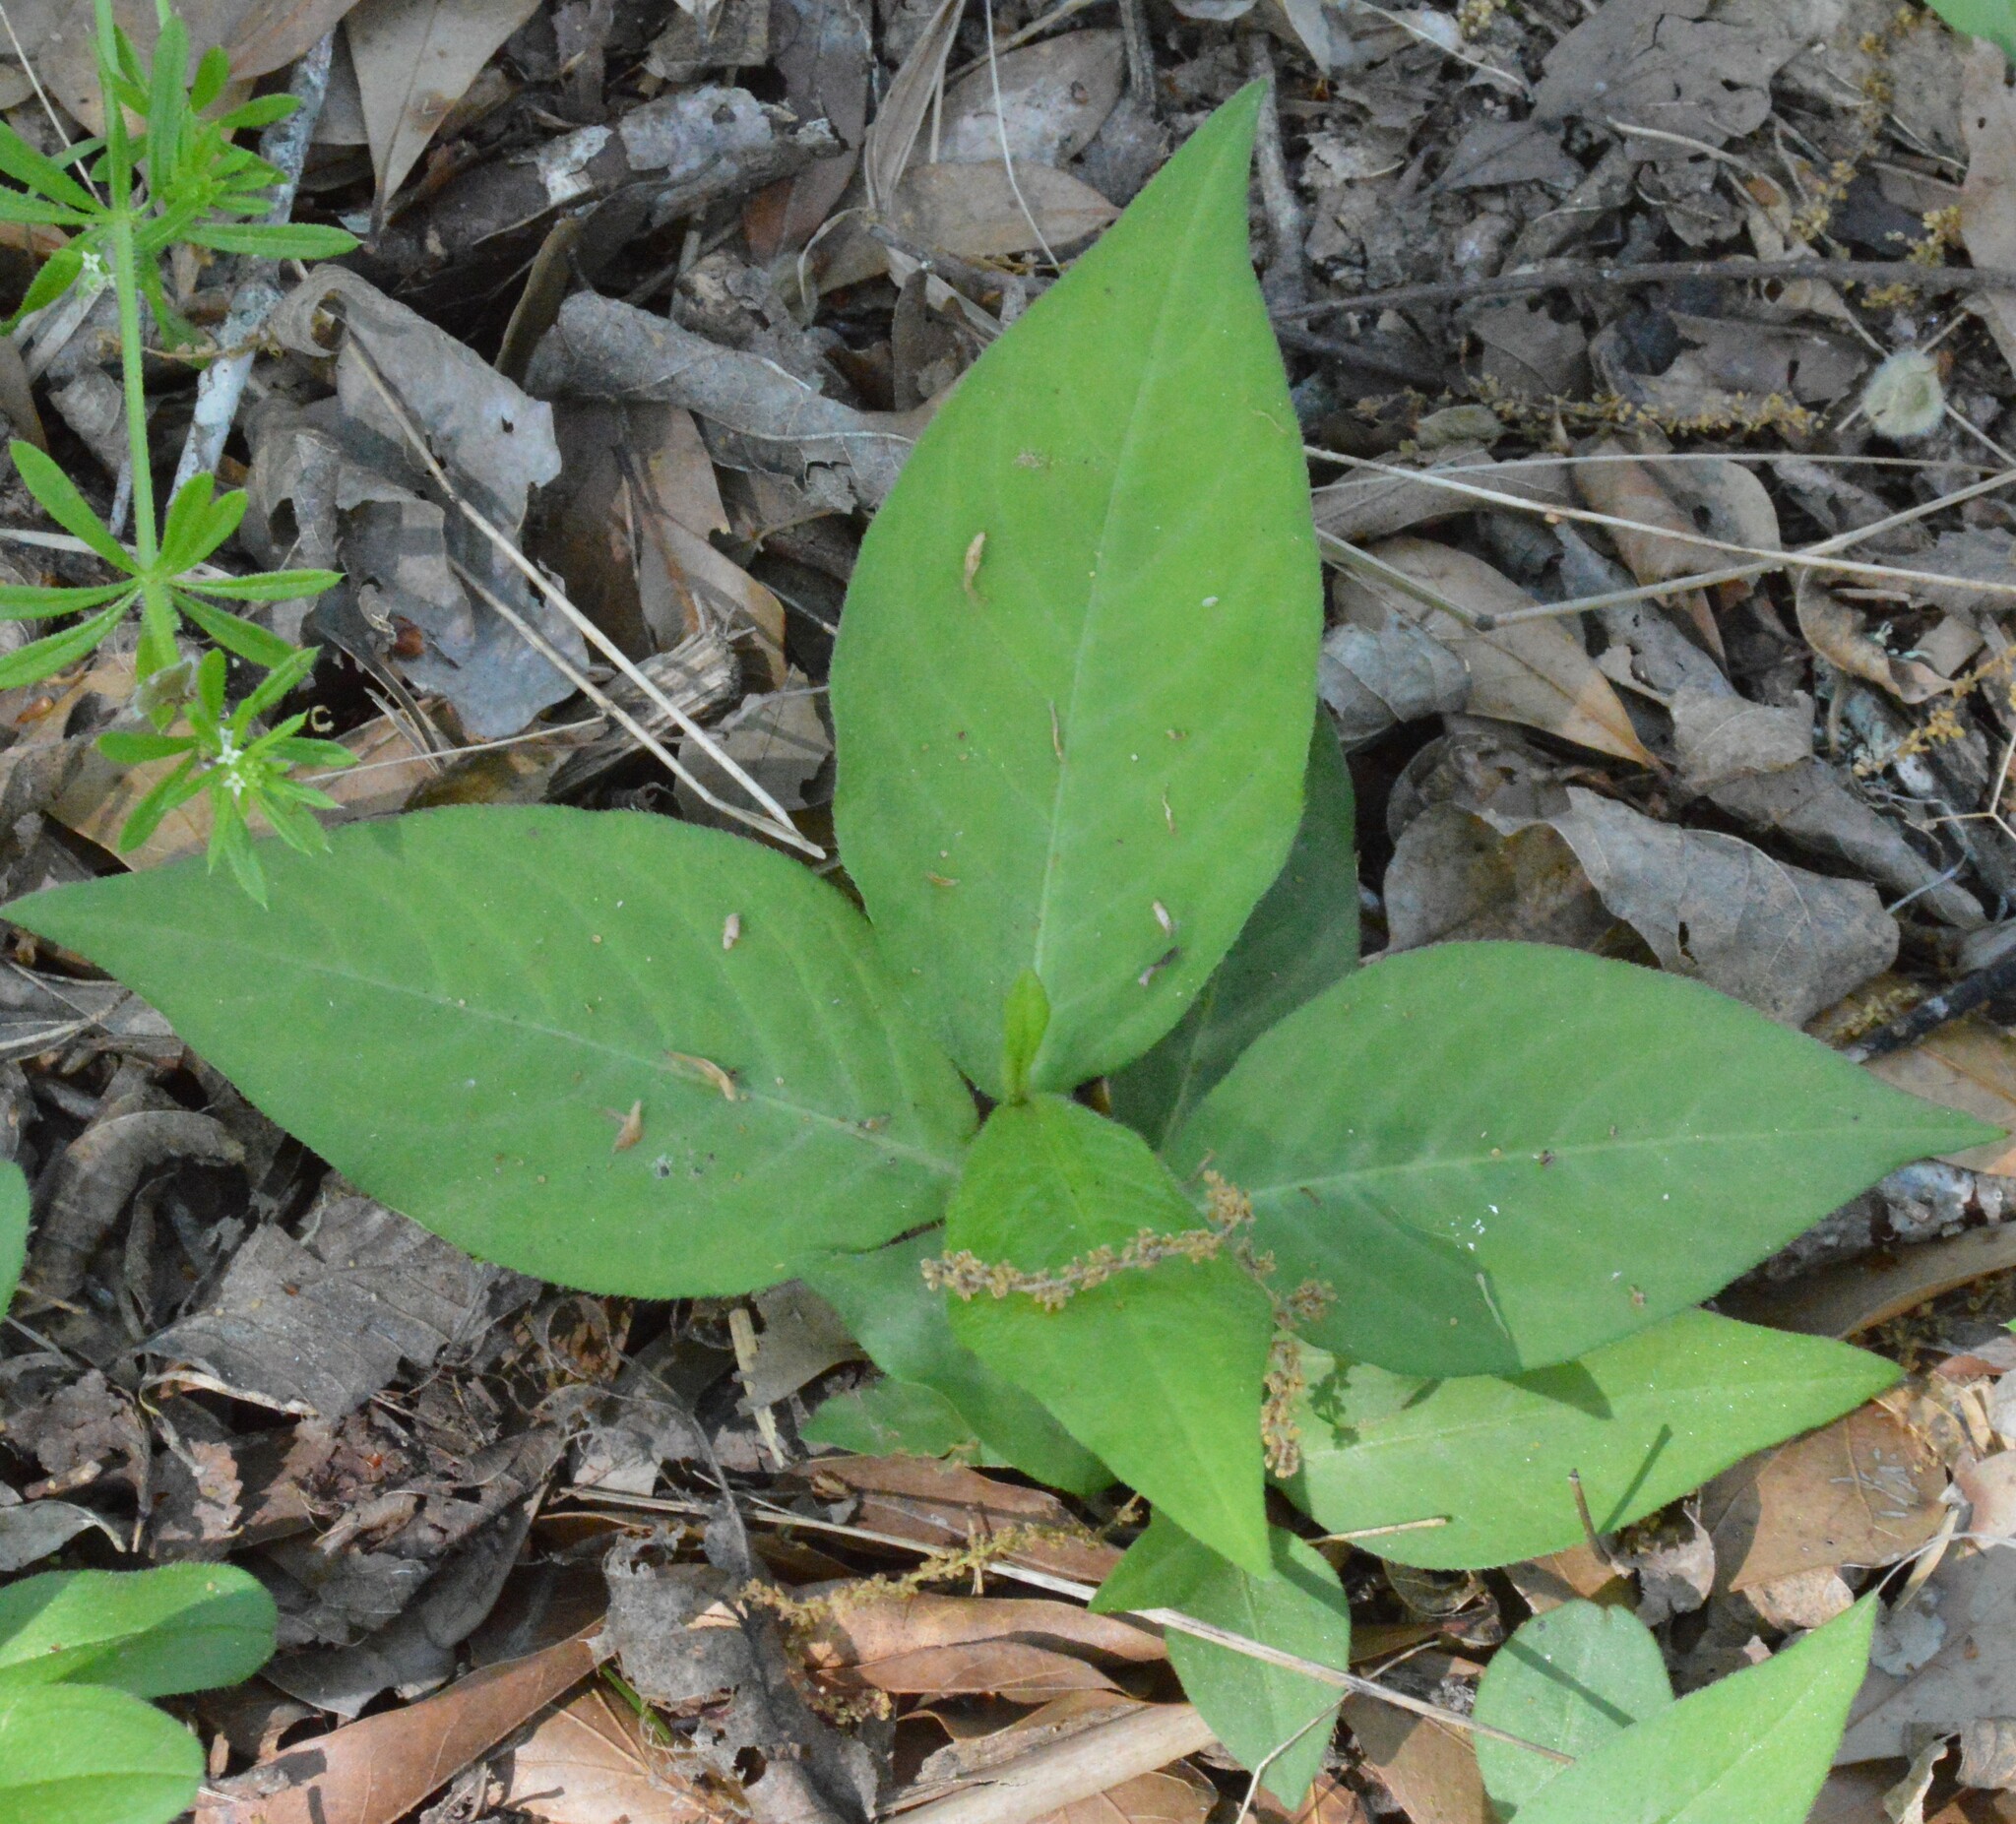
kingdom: Plantae
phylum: Tracheophyta
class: Magnoliopsida
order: Caryophyllales
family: Polygonaceae
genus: Persicaria
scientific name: Persicaria virginiana
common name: Jumpseed
